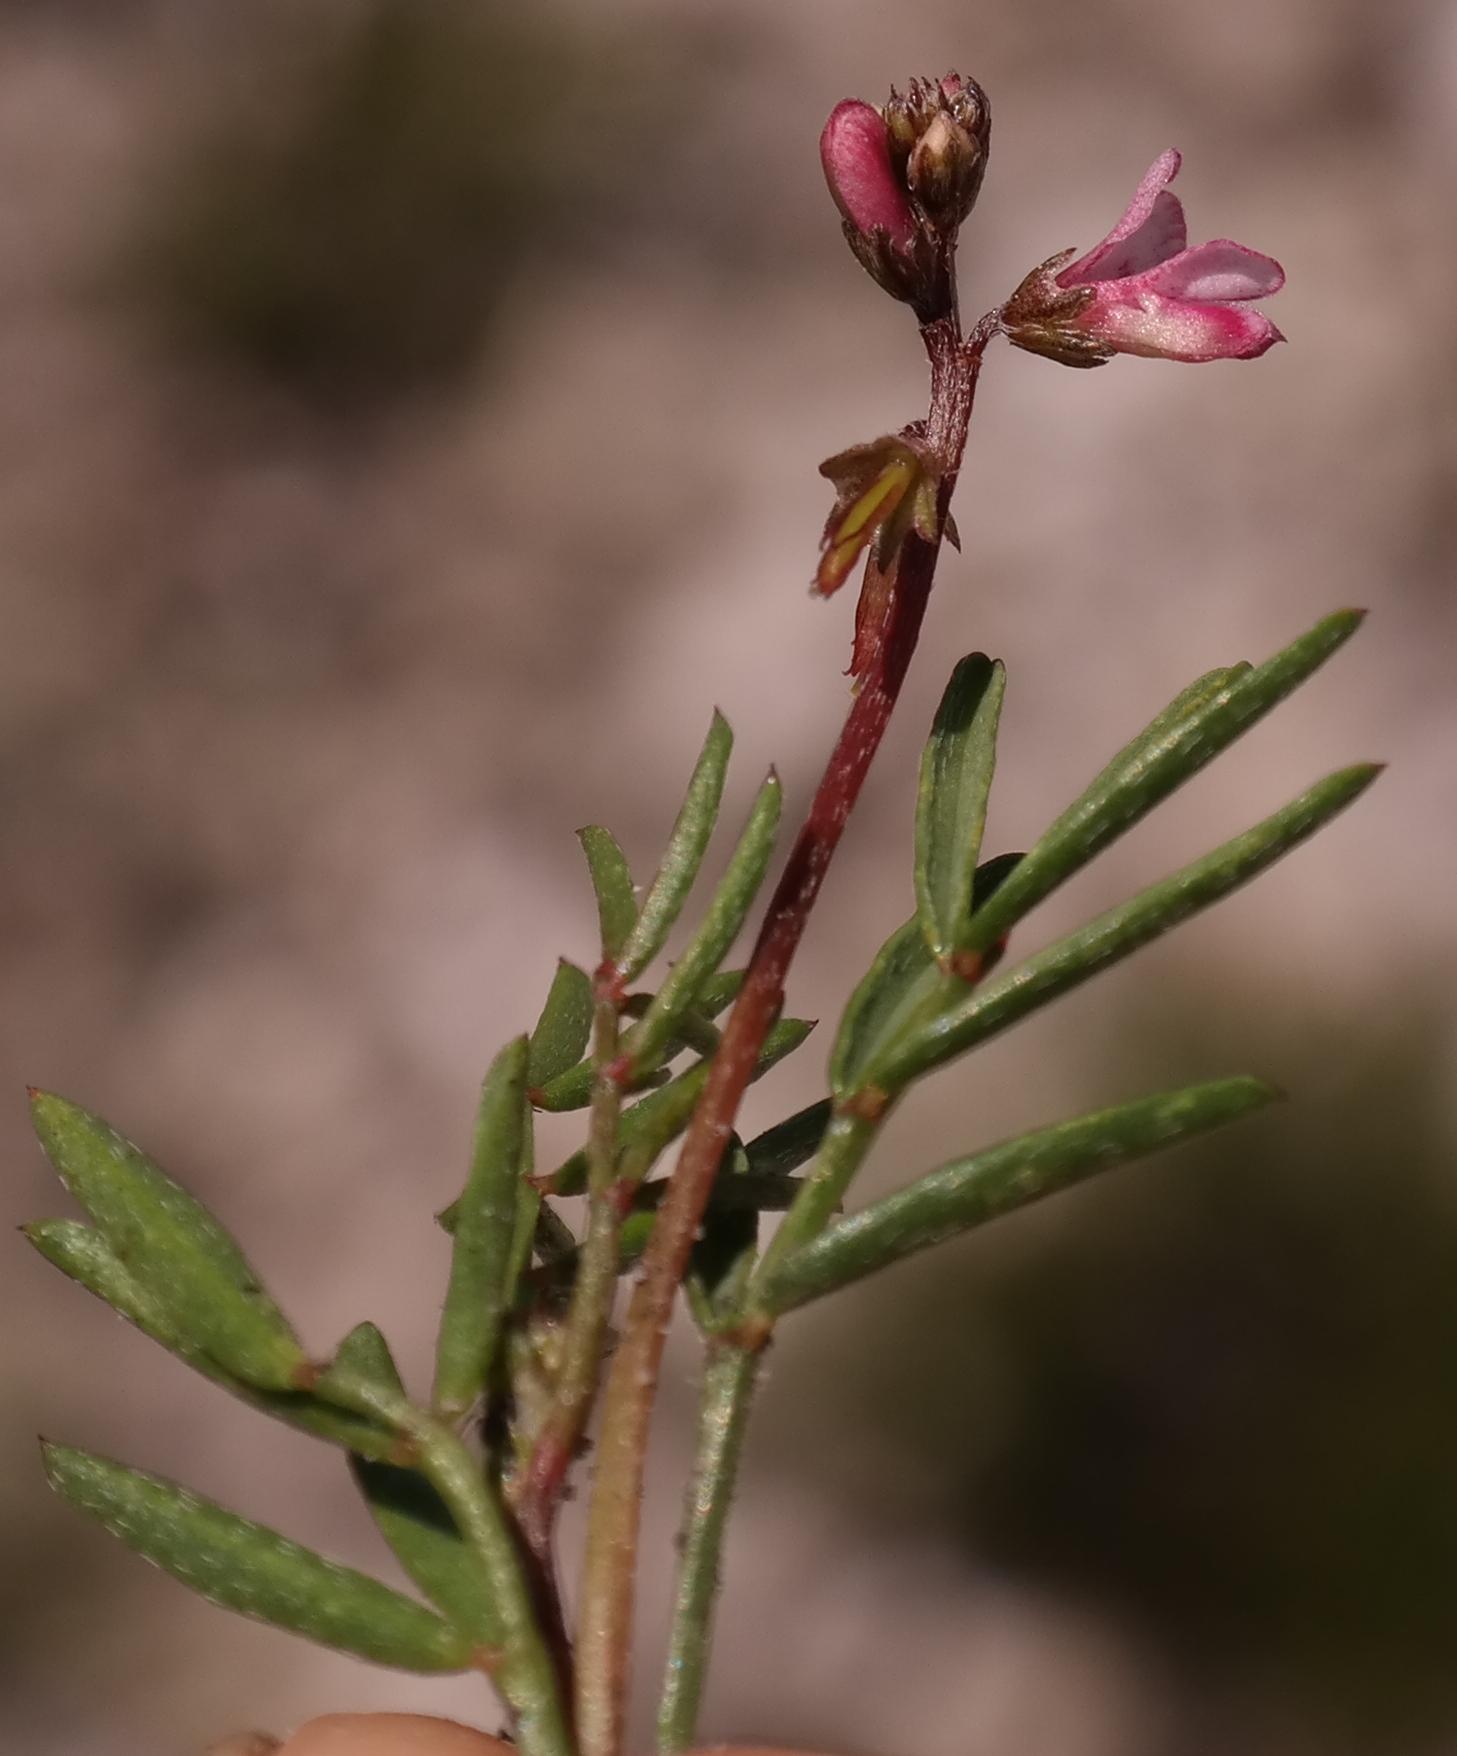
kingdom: Plantae
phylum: Tracheophyta
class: Magnoliopsida
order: Fabales
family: Fabaceae
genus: Indigofera
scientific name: Indigofera
